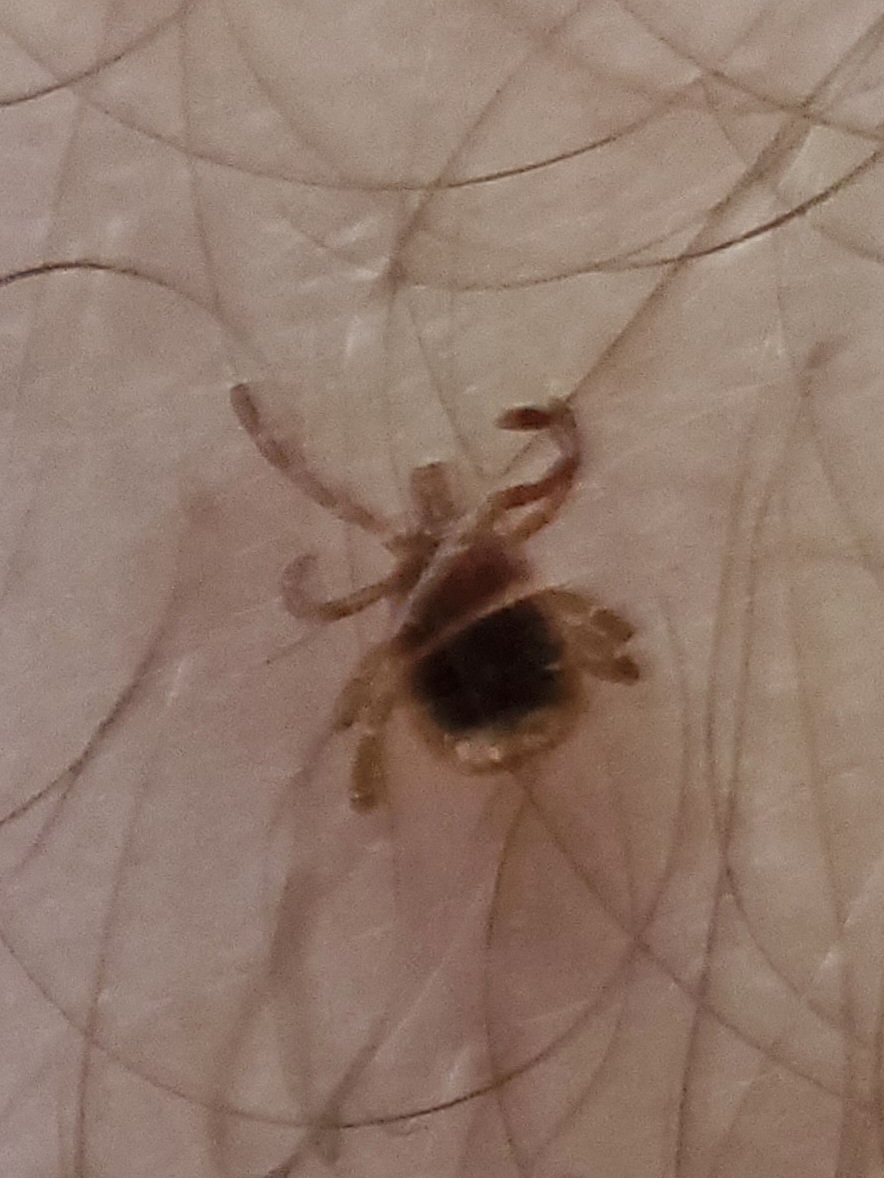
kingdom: Animalia
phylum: Arthropoda
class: Arachnida
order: Ixodida
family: Ixodidae
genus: Amblyomma
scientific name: Amblyomma americanum
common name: Lone star tick
